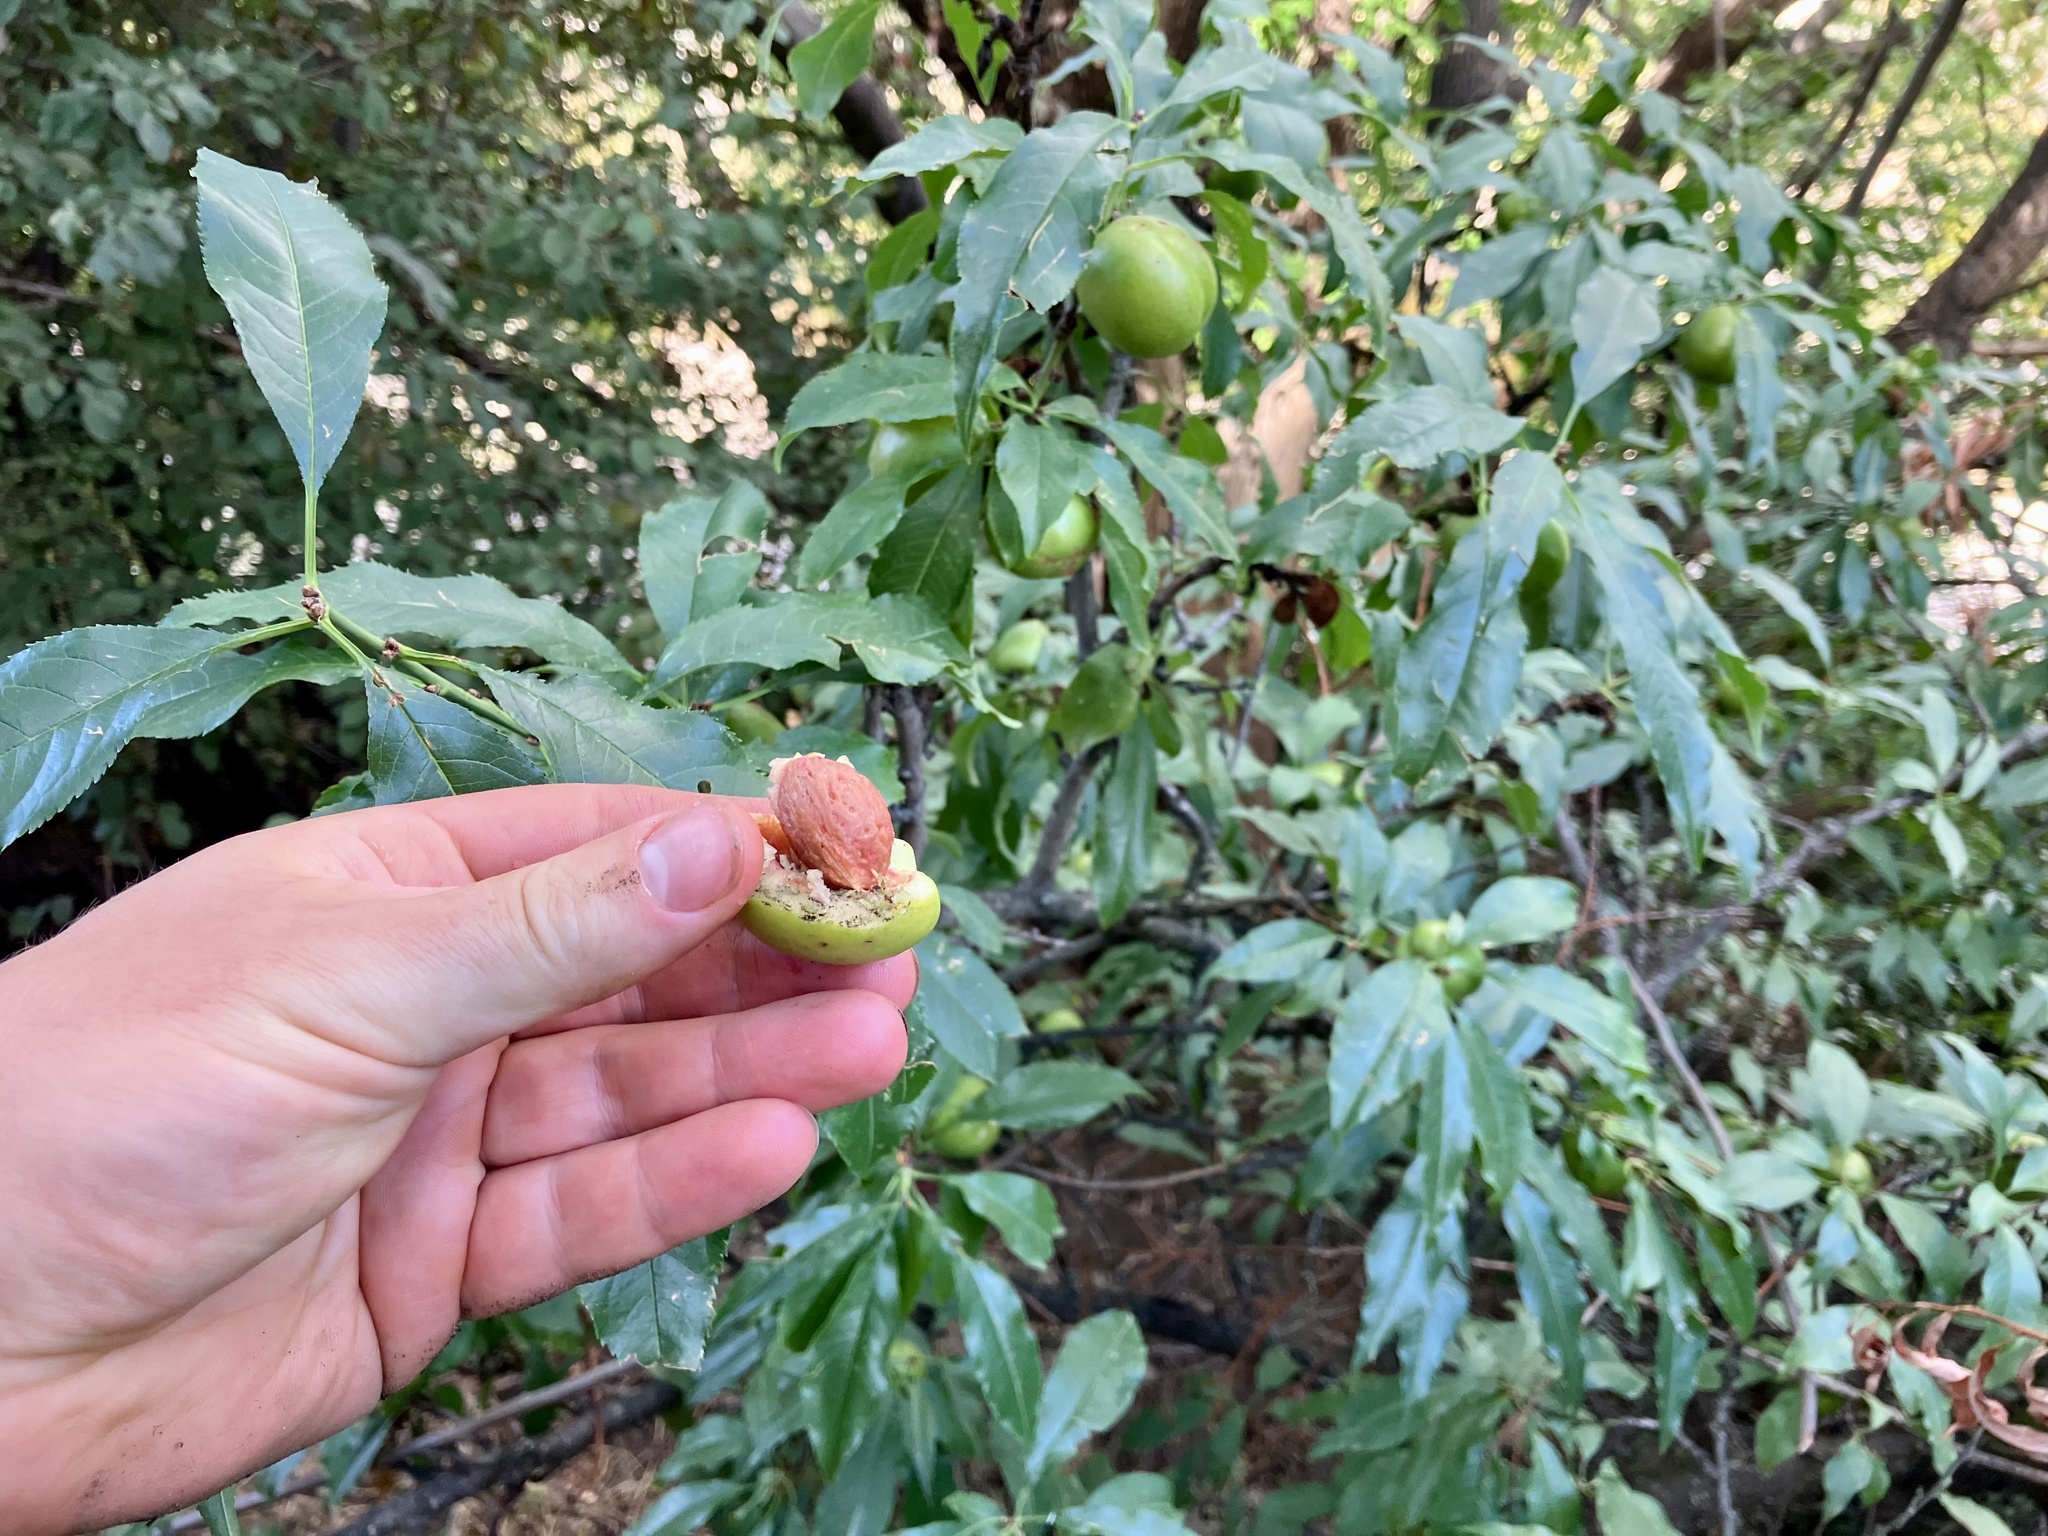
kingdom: Plantae
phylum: Tracheophyta
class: Magnoliopsida
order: Rosales
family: Rosaceae
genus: Prunus
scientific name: Prunus persica
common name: Peach
